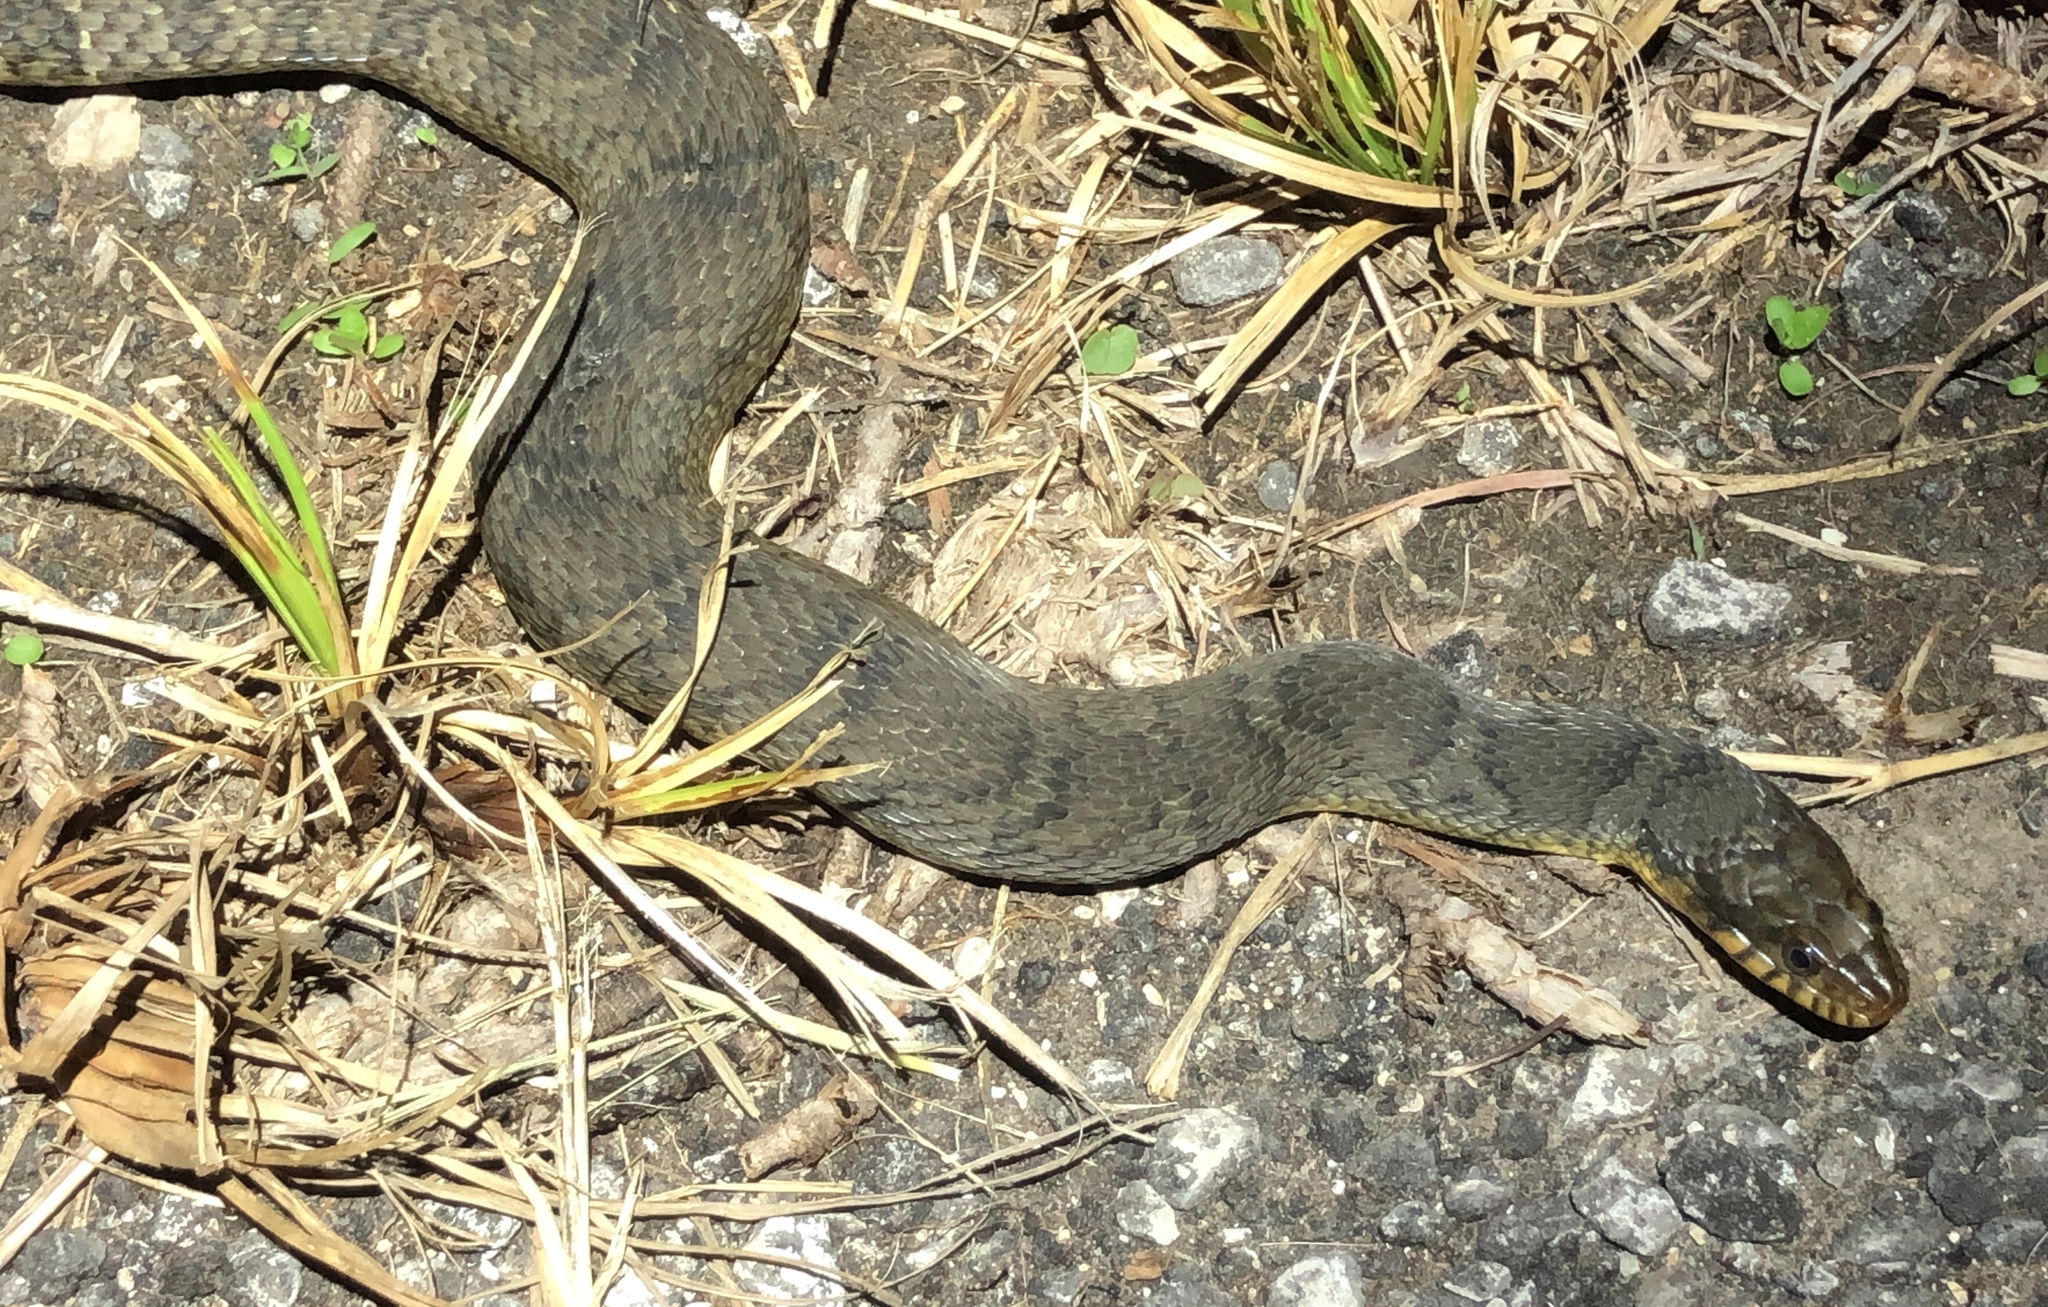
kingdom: Animalia
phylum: Chordata
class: Squamata
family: Colubridae
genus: Nerodia
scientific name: Nerodia erythrogaster
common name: Plainbelly water snake
